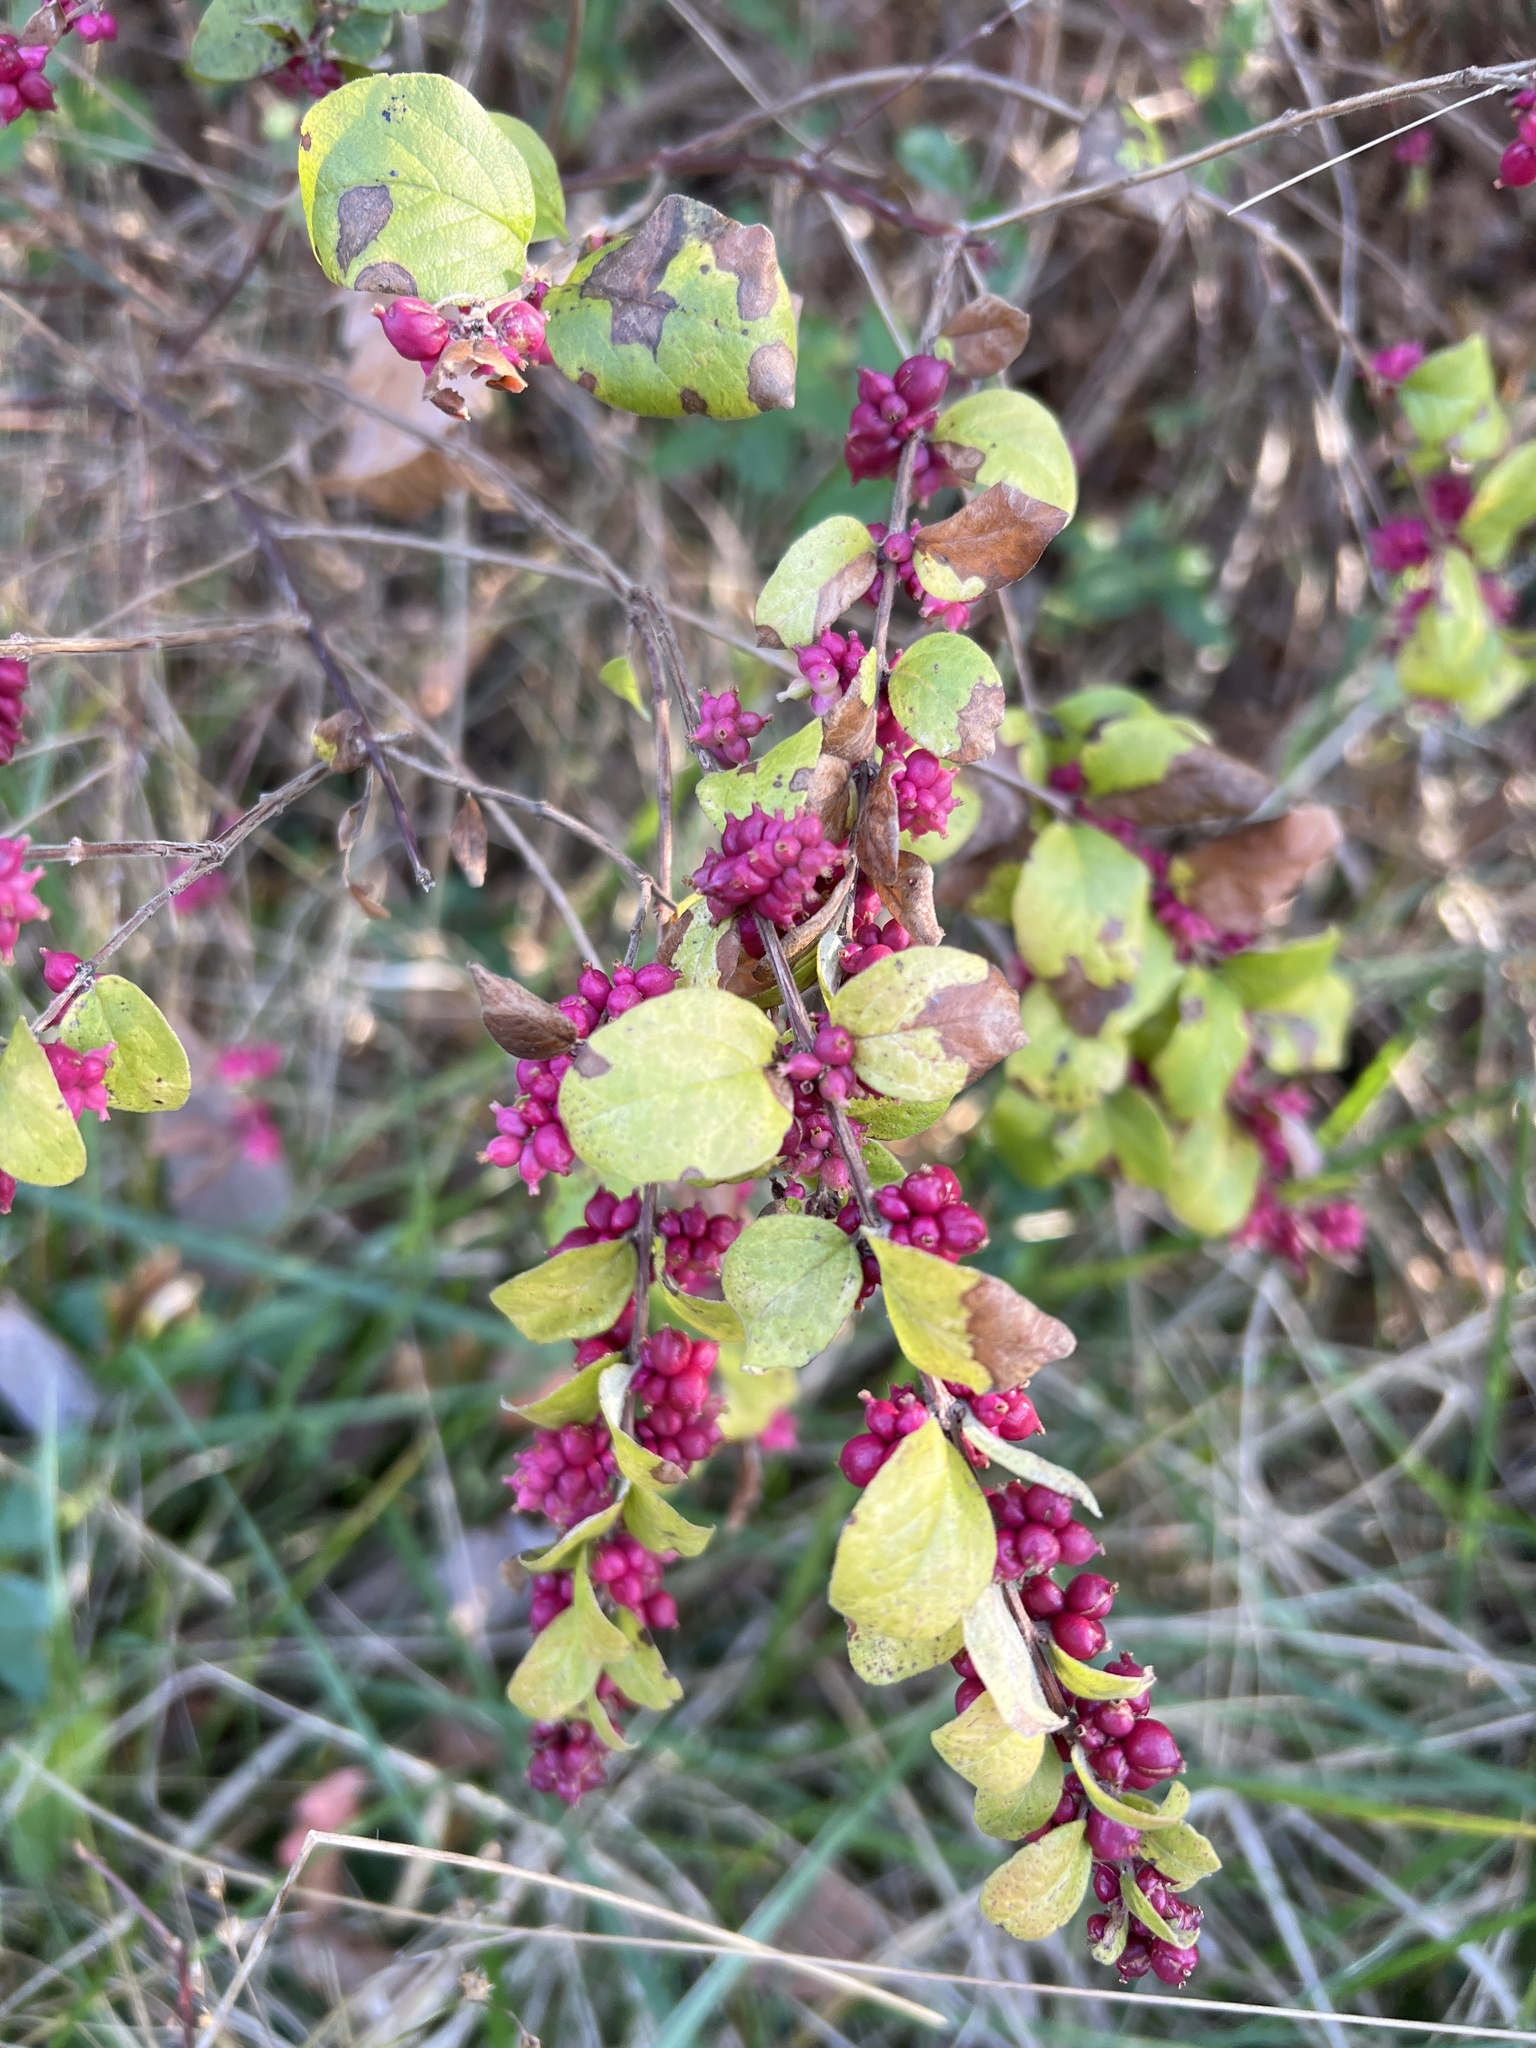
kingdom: Plantae
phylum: Tracheophyta
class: Magnoliopsida
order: Dipsacales
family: Caprifoliaceae
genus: Symphoricarpos
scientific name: Symphoricarpos orbiculatus
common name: Coralberry
